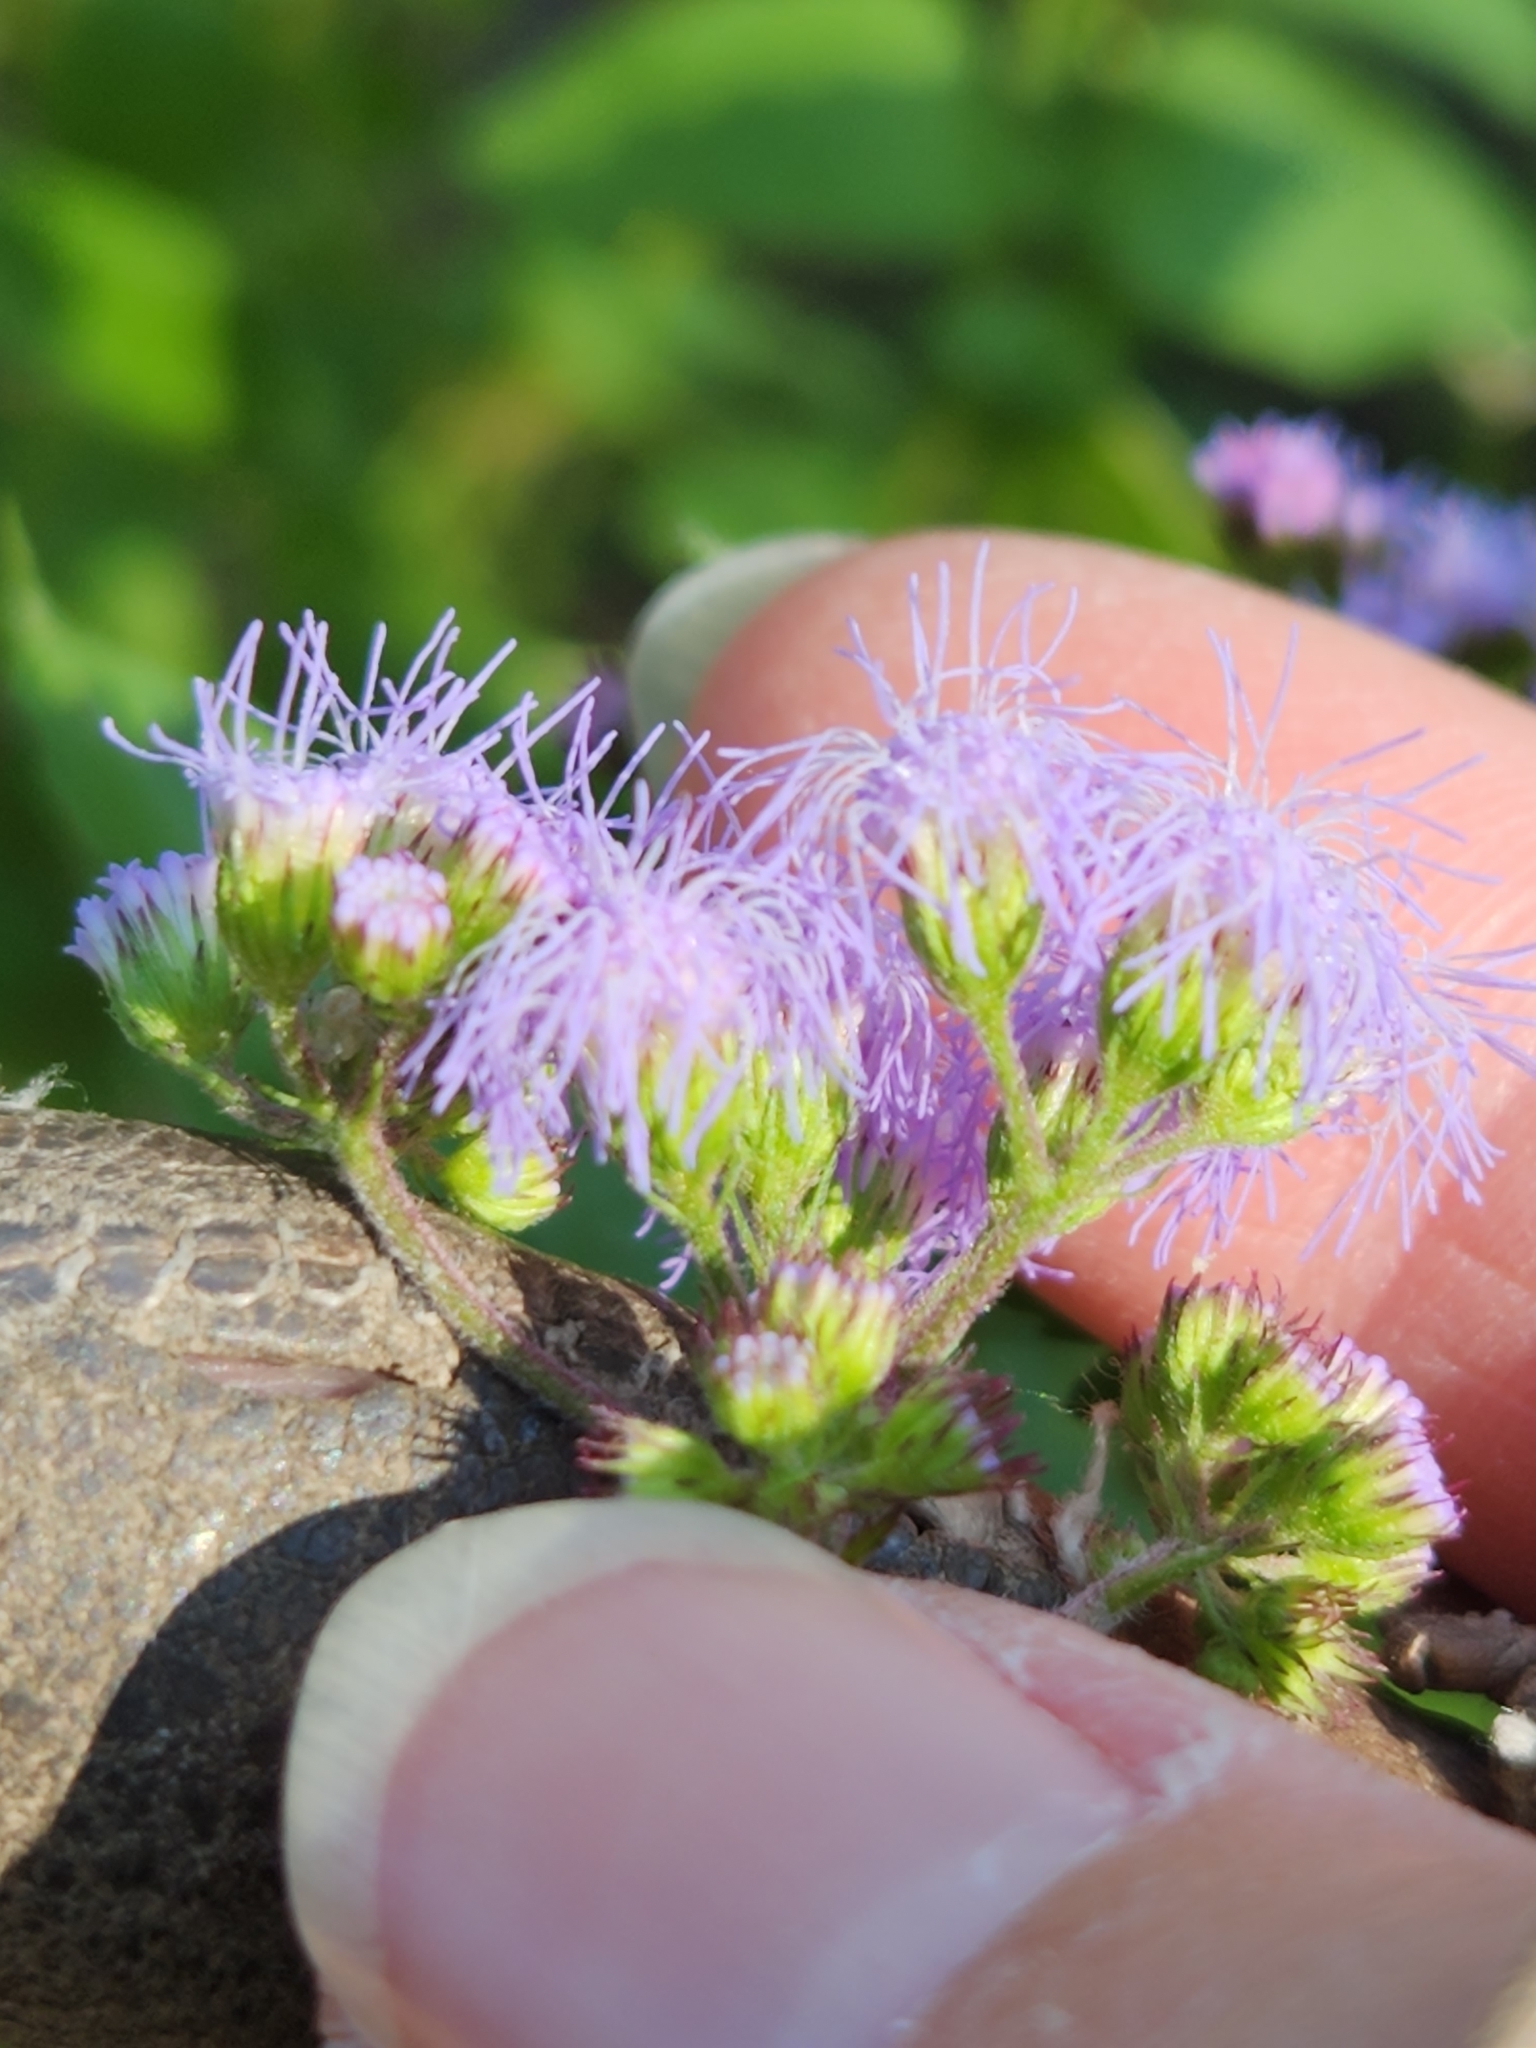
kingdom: Plantae
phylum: Tracheophyta
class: Magnoliopsida
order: Asterales
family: Asteraceae
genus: Conoclinium
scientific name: Conoclinium coelestinum
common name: Blue mistflower
